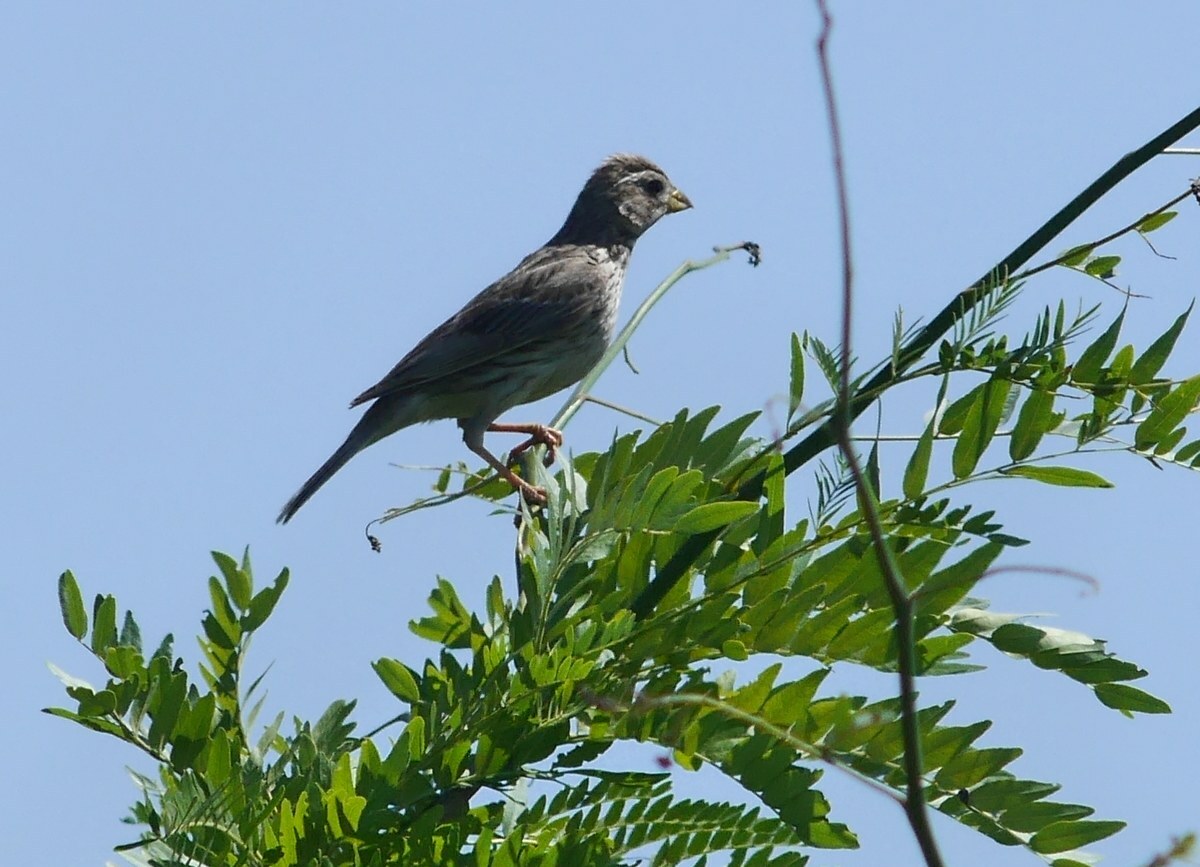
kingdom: Animalia
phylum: Chordata
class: Aves
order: Passeriformes
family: Emberizidae
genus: Emberiza
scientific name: Emberiza calandra
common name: Corn bunting
